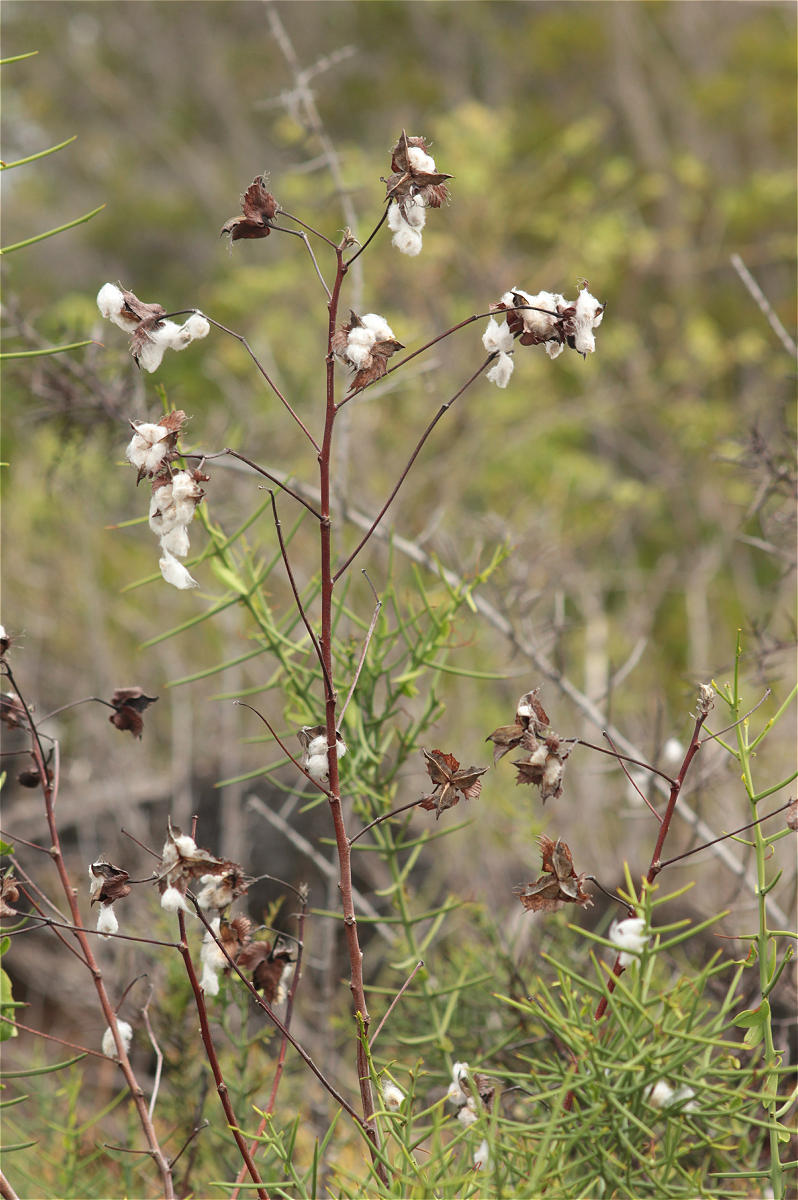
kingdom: Plantae
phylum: Tracheophyta
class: Magnoliopsida
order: Malvales
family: Malvaceae
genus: Gossypium
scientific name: Gossypium darwinii
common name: Darwin's cotton
